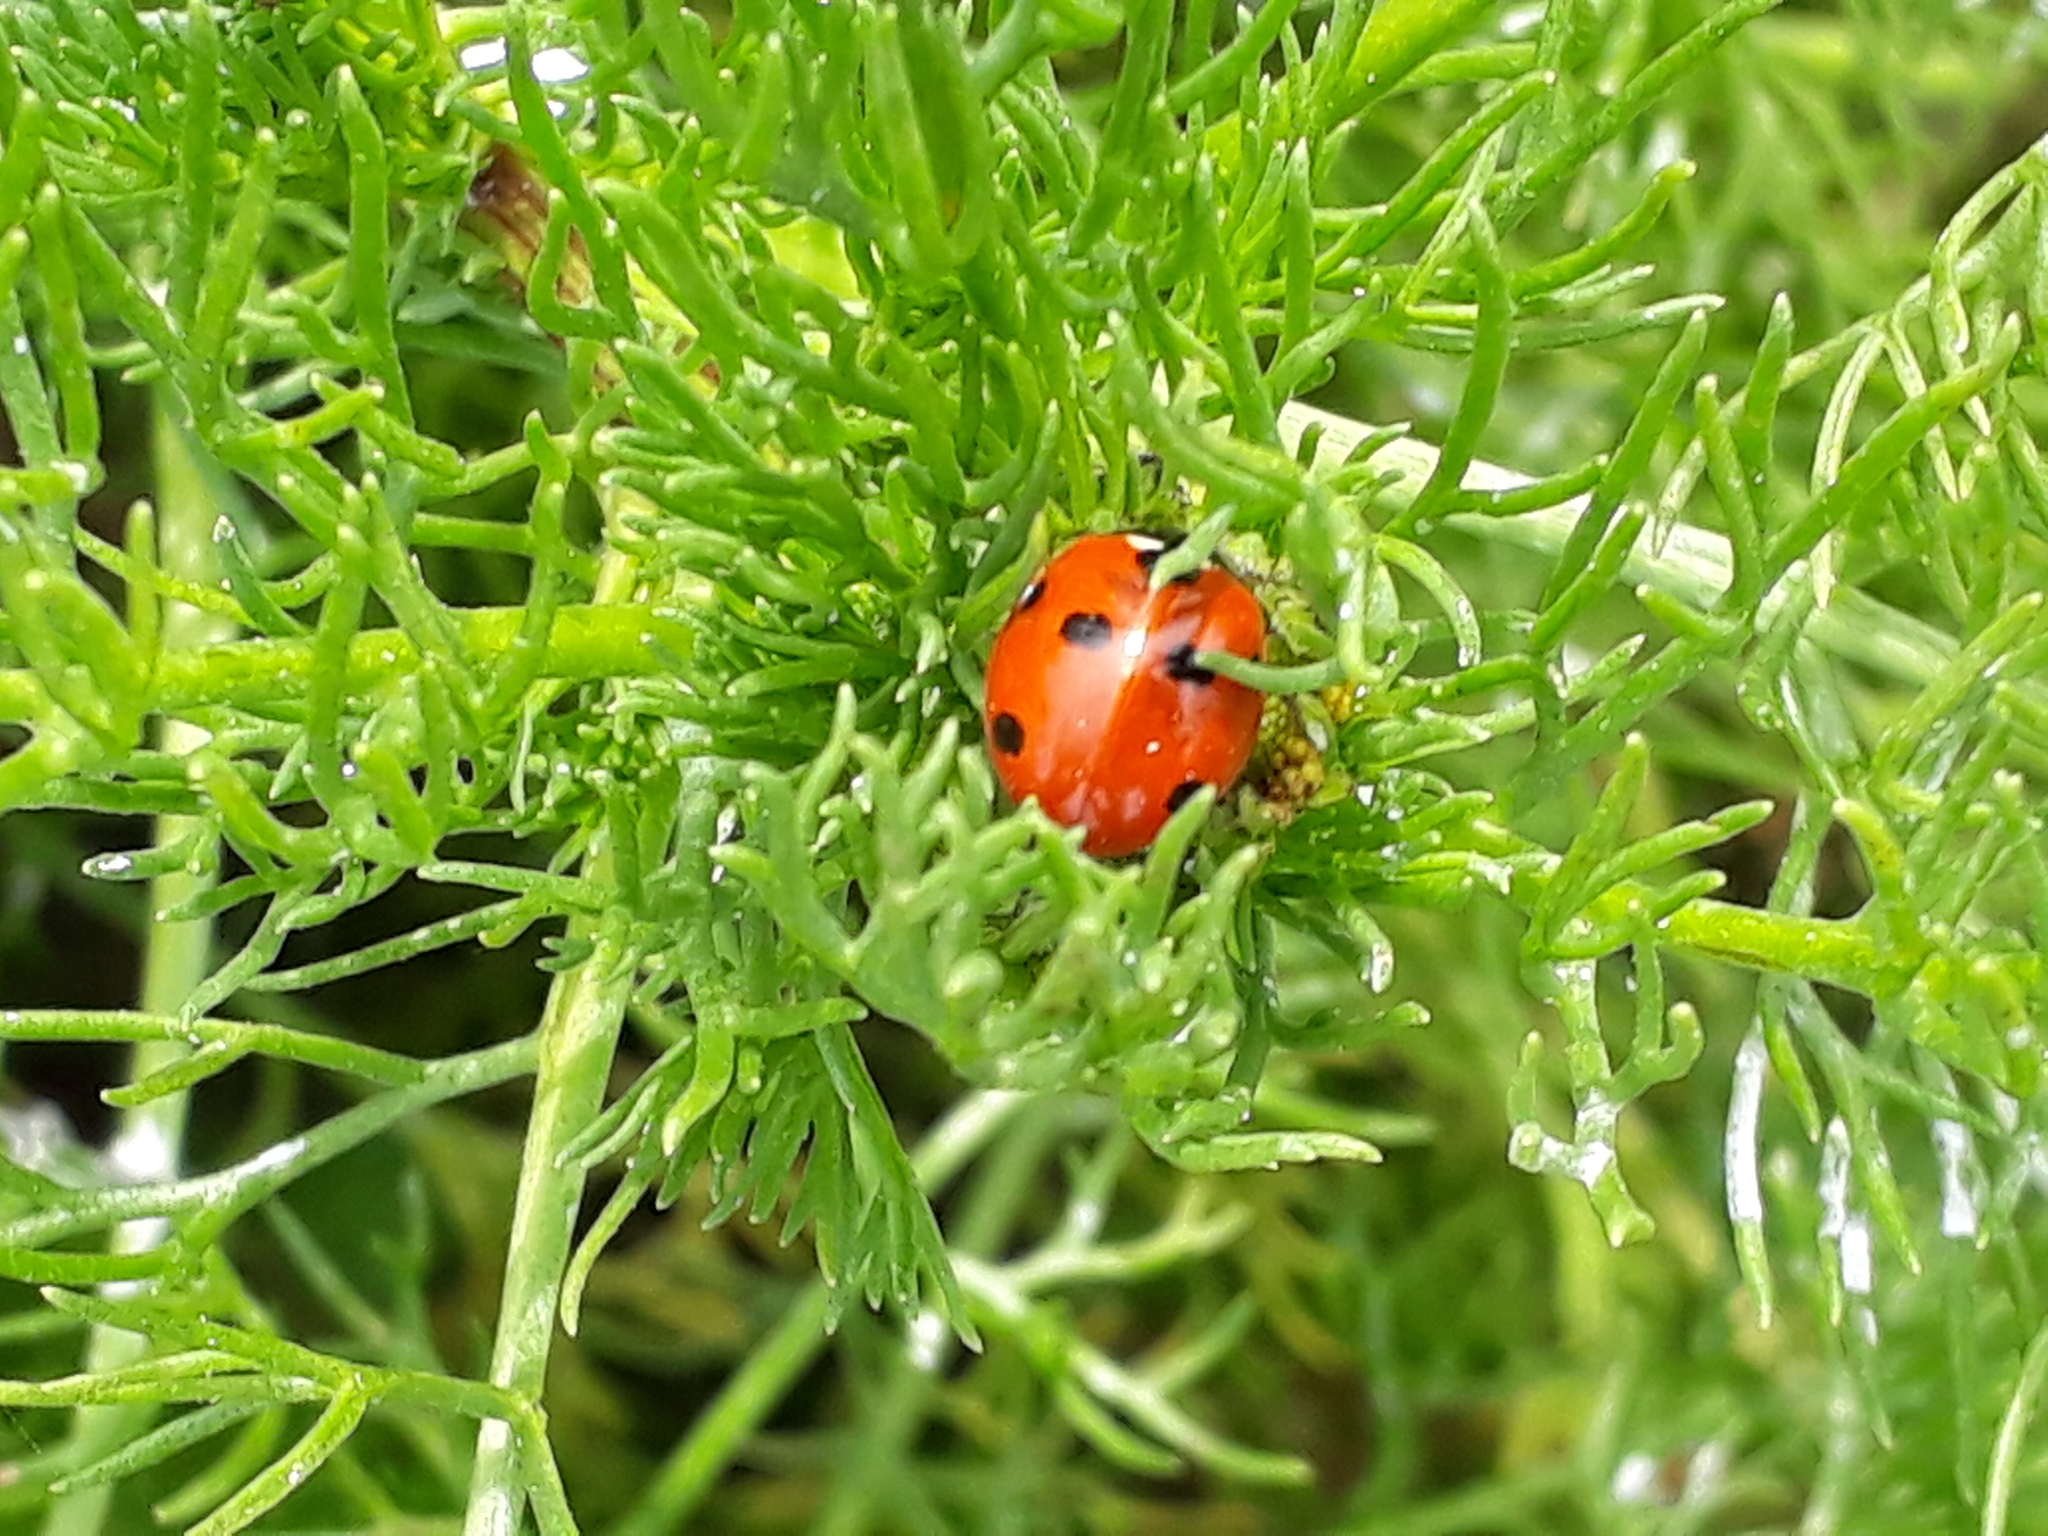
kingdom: Animalia
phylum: Arthropoda
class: Insecta
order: Coleoptera
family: Coccinellidae
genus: Coccinella
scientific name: Coccinella septempunctata
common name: Sevenspotted lady beetle
